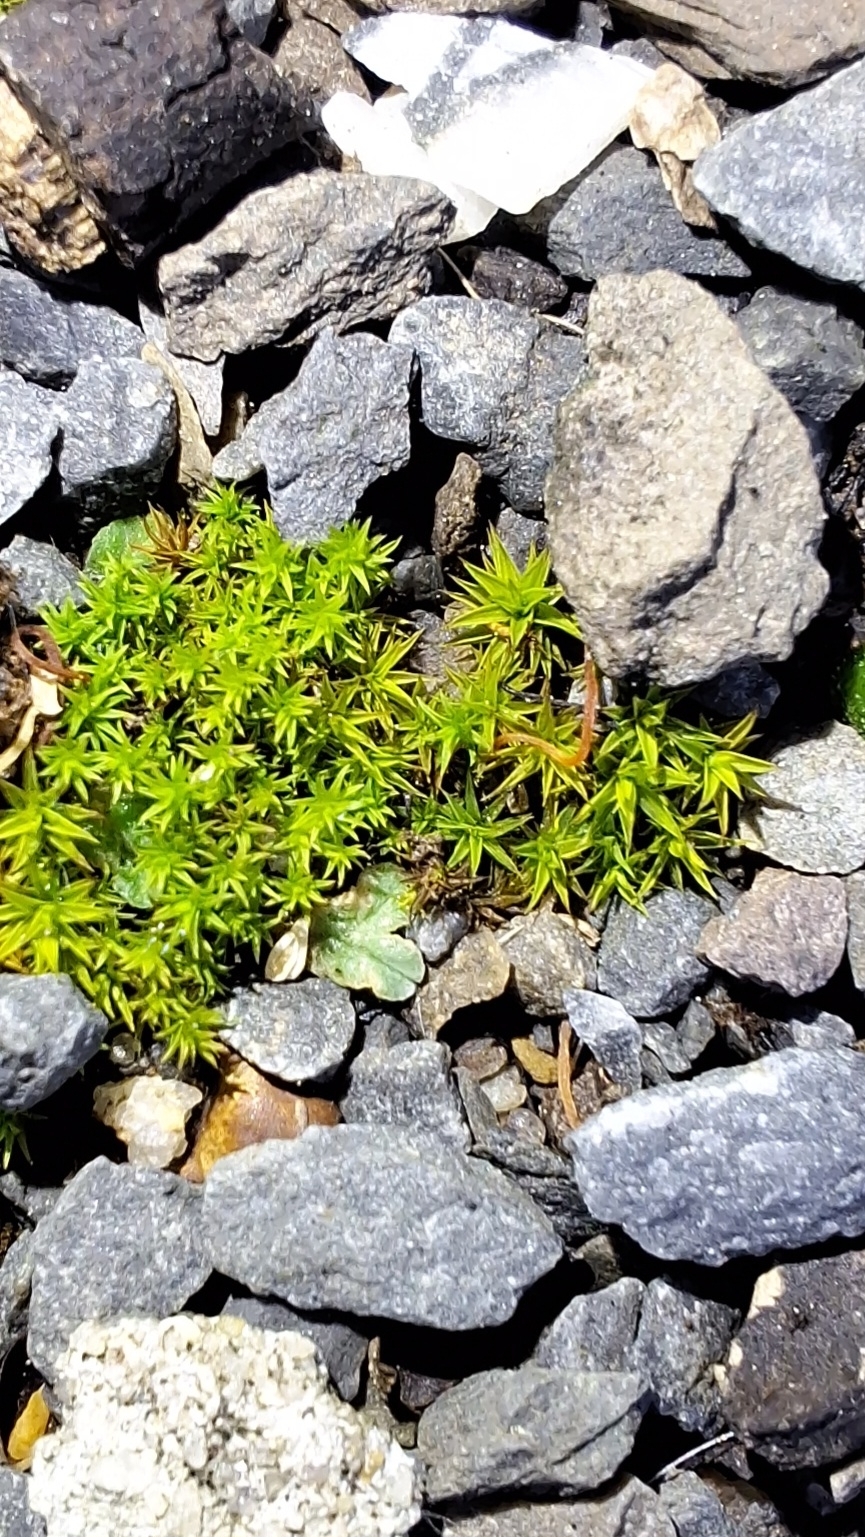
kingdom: Plantae
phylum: Bryophyta
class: Bryopsida
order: Pottiales
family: Pottiaceae
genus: Gertrudiella
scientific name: Gertrudiella torquata
